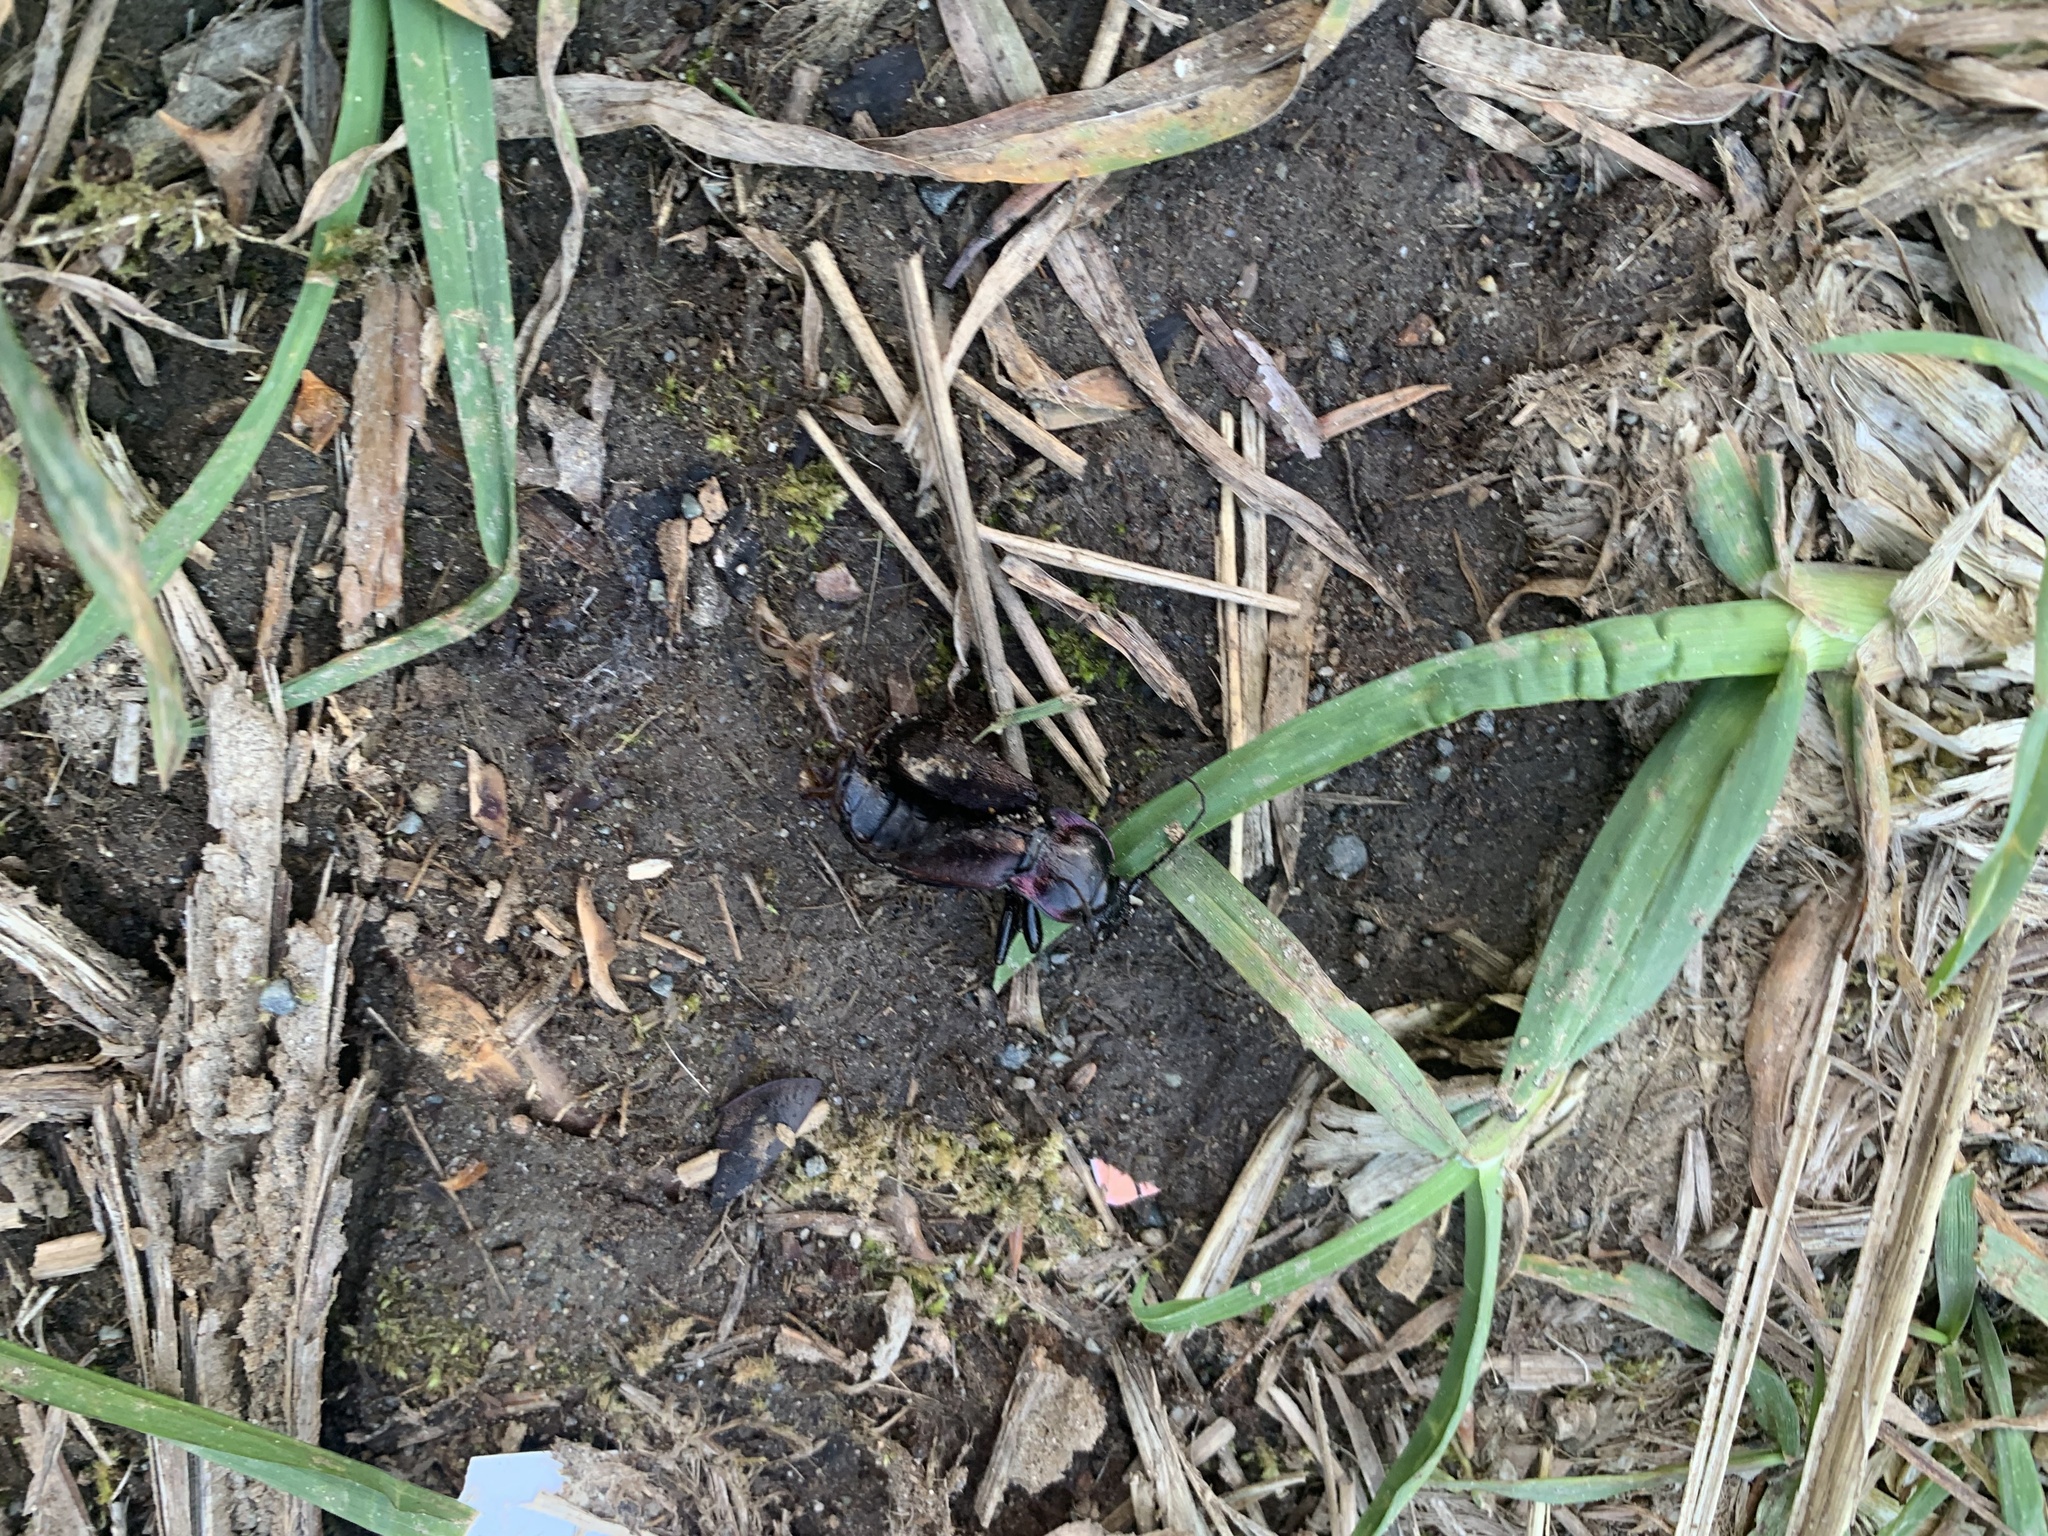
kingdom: Animalia
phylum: Arthropoda
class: Insecta
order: Coleoptera
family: Carabidae
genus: Carabus
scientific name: Carabus nemoralis
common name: European ground beetle
